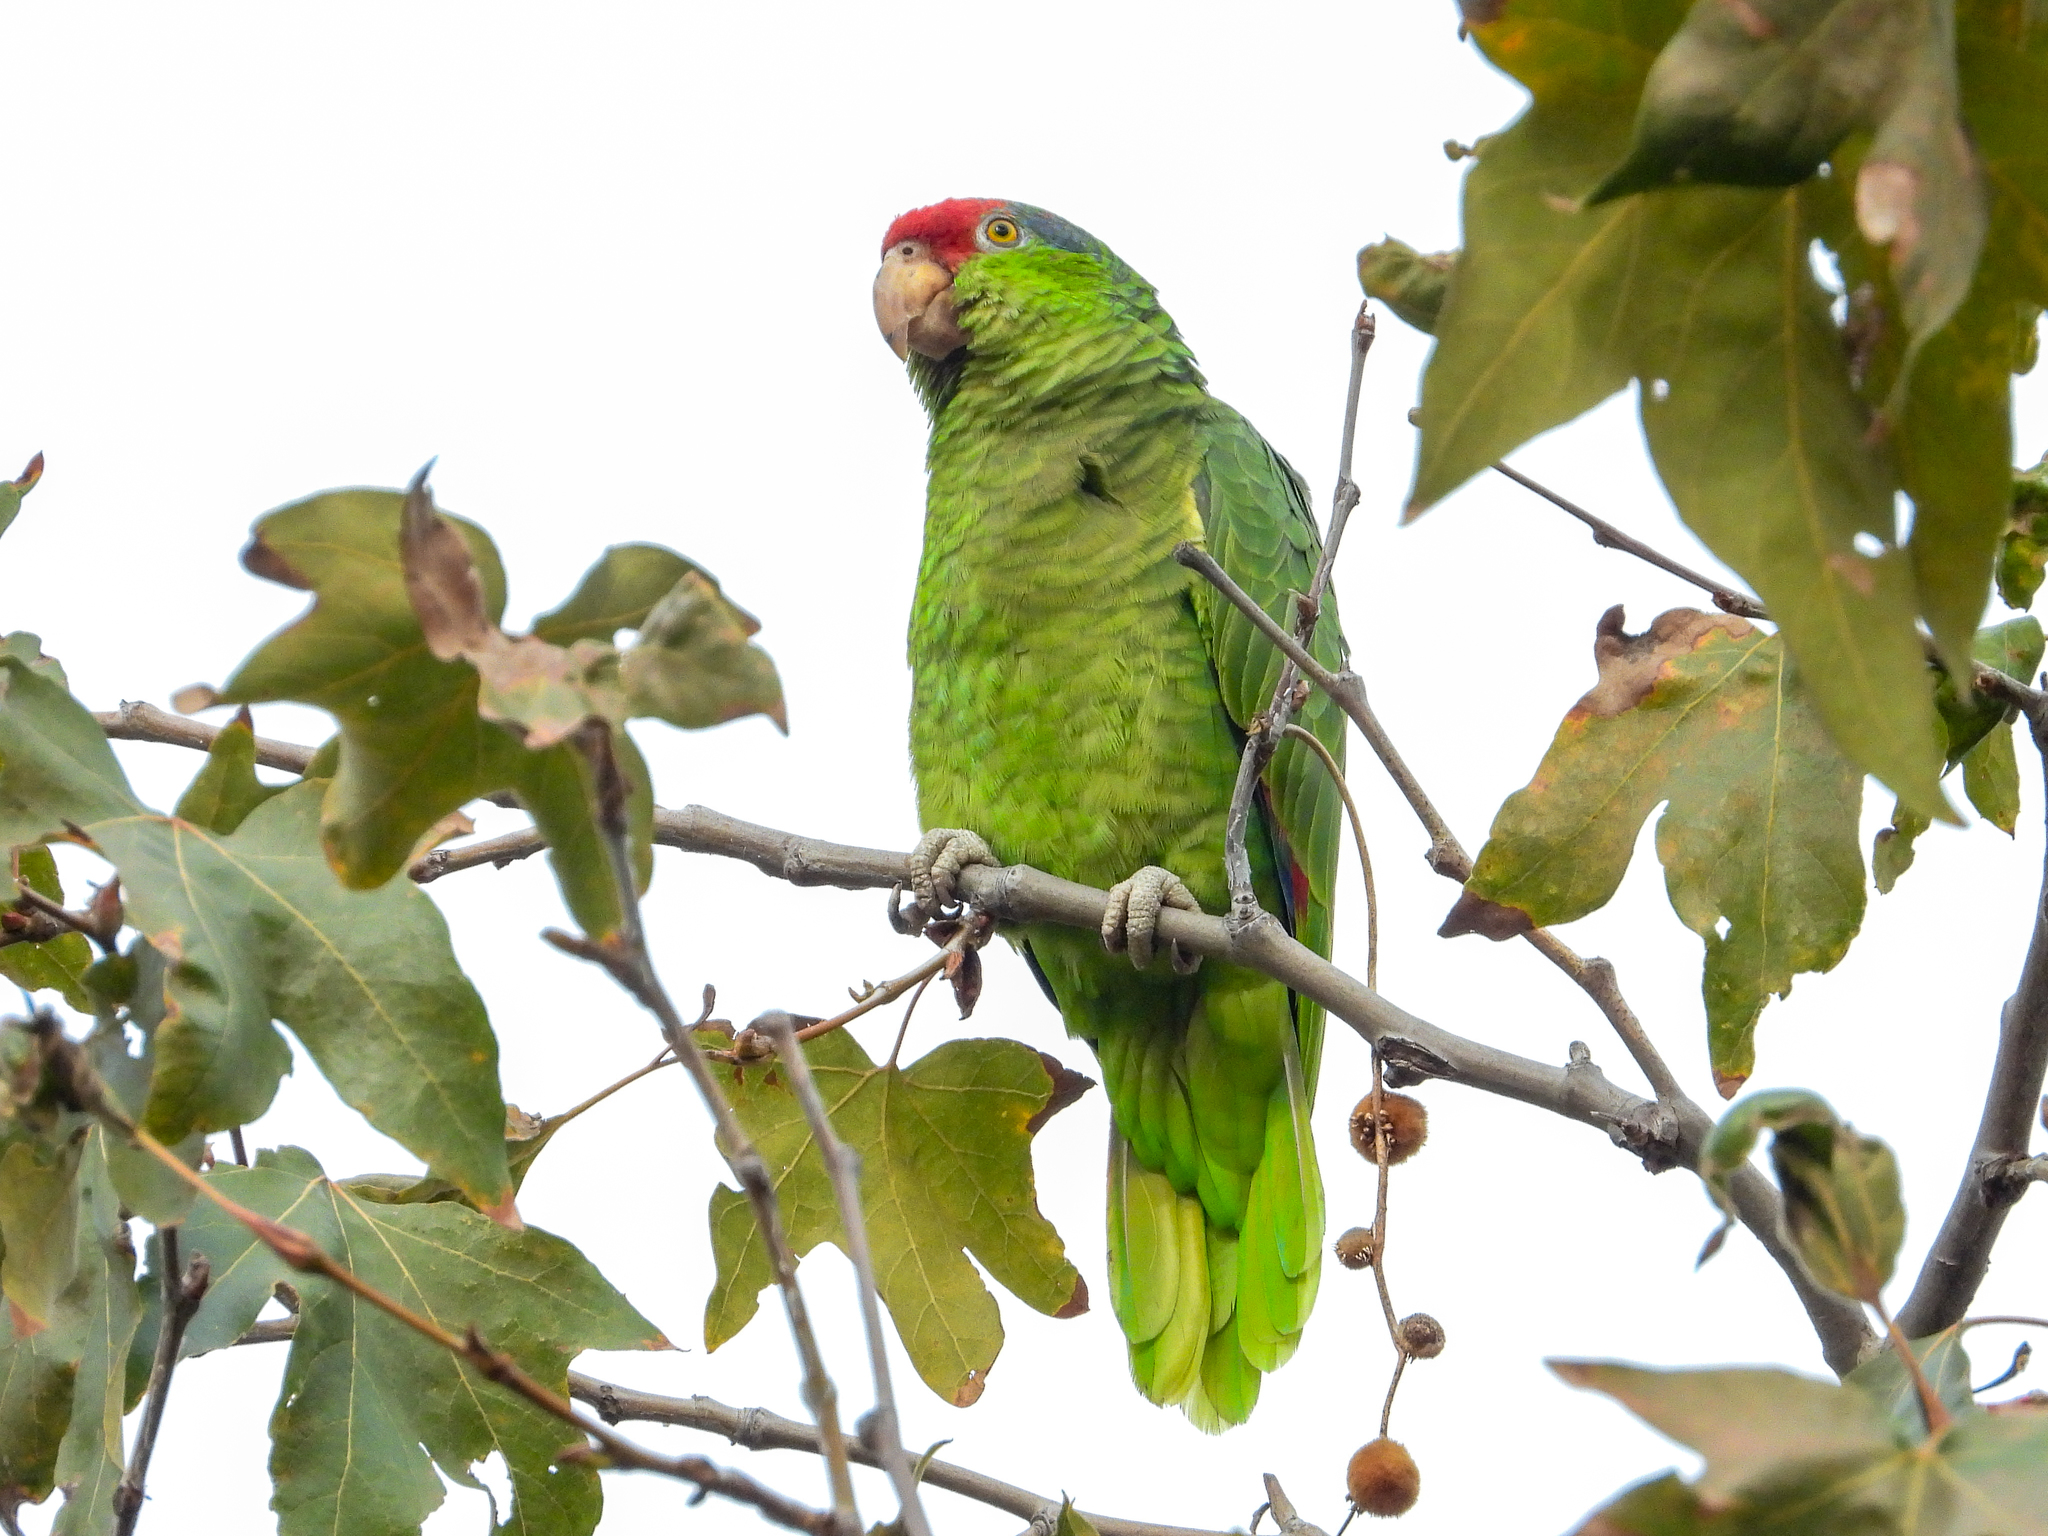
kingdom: Animalia
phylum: Chordata
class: Aves
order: Psittaciformes
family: Psittacidae
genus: Amazona
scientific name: Amazona viridigenalis
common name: Red-crowned amazon
